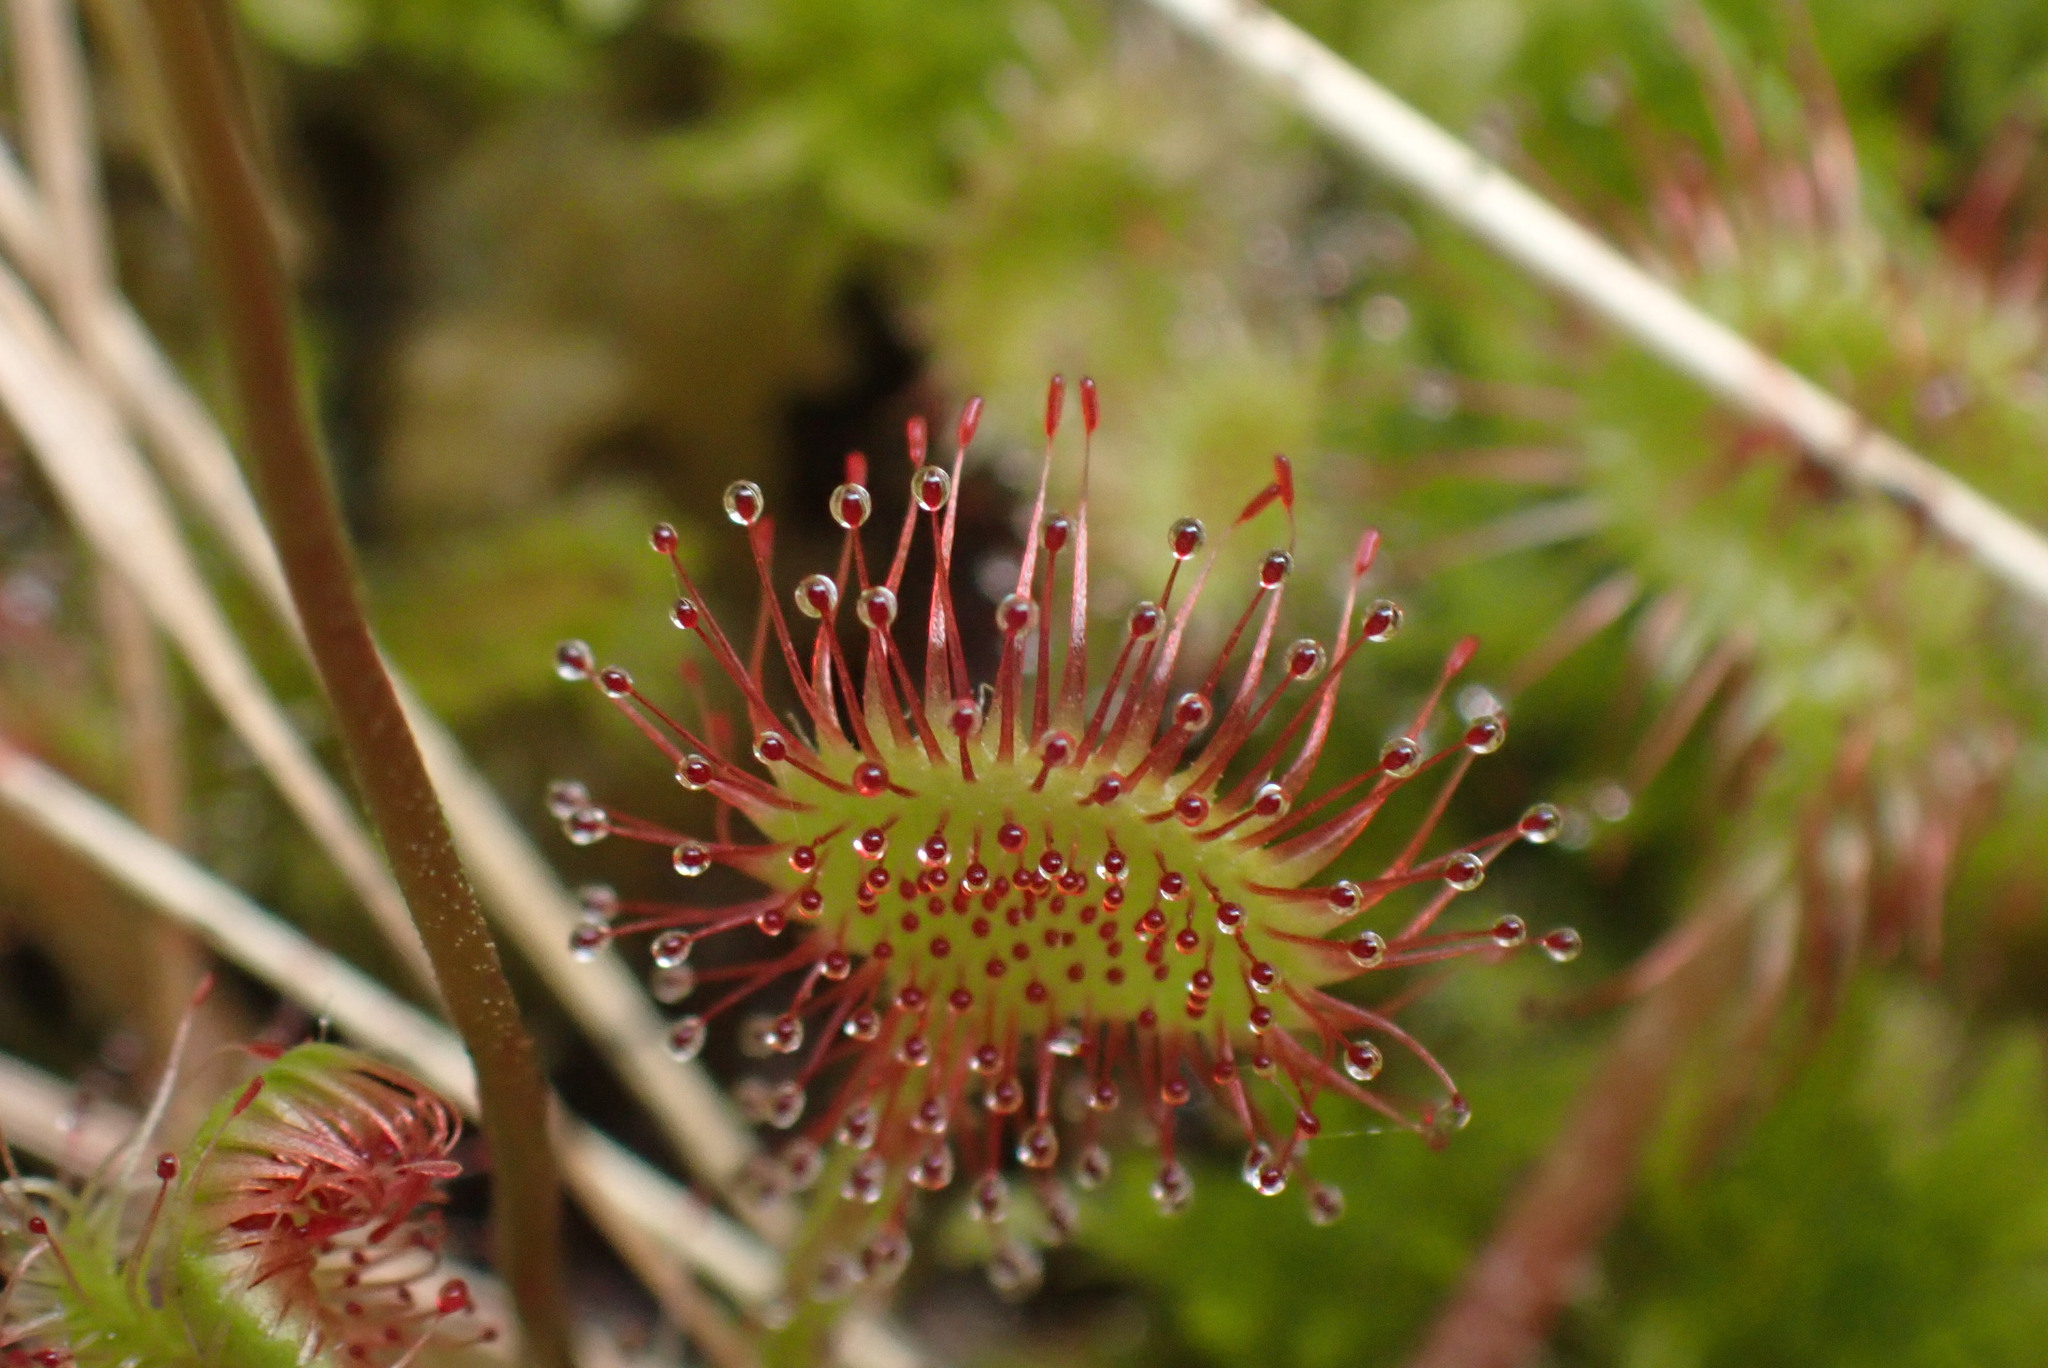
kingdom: Plantae
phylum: Tracheophyta
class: Magnoliopsida
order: Caryophyllales
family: Droseraceae
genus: Drosera
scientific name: Drosera rotundifolia
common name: Round-leaved sundew
